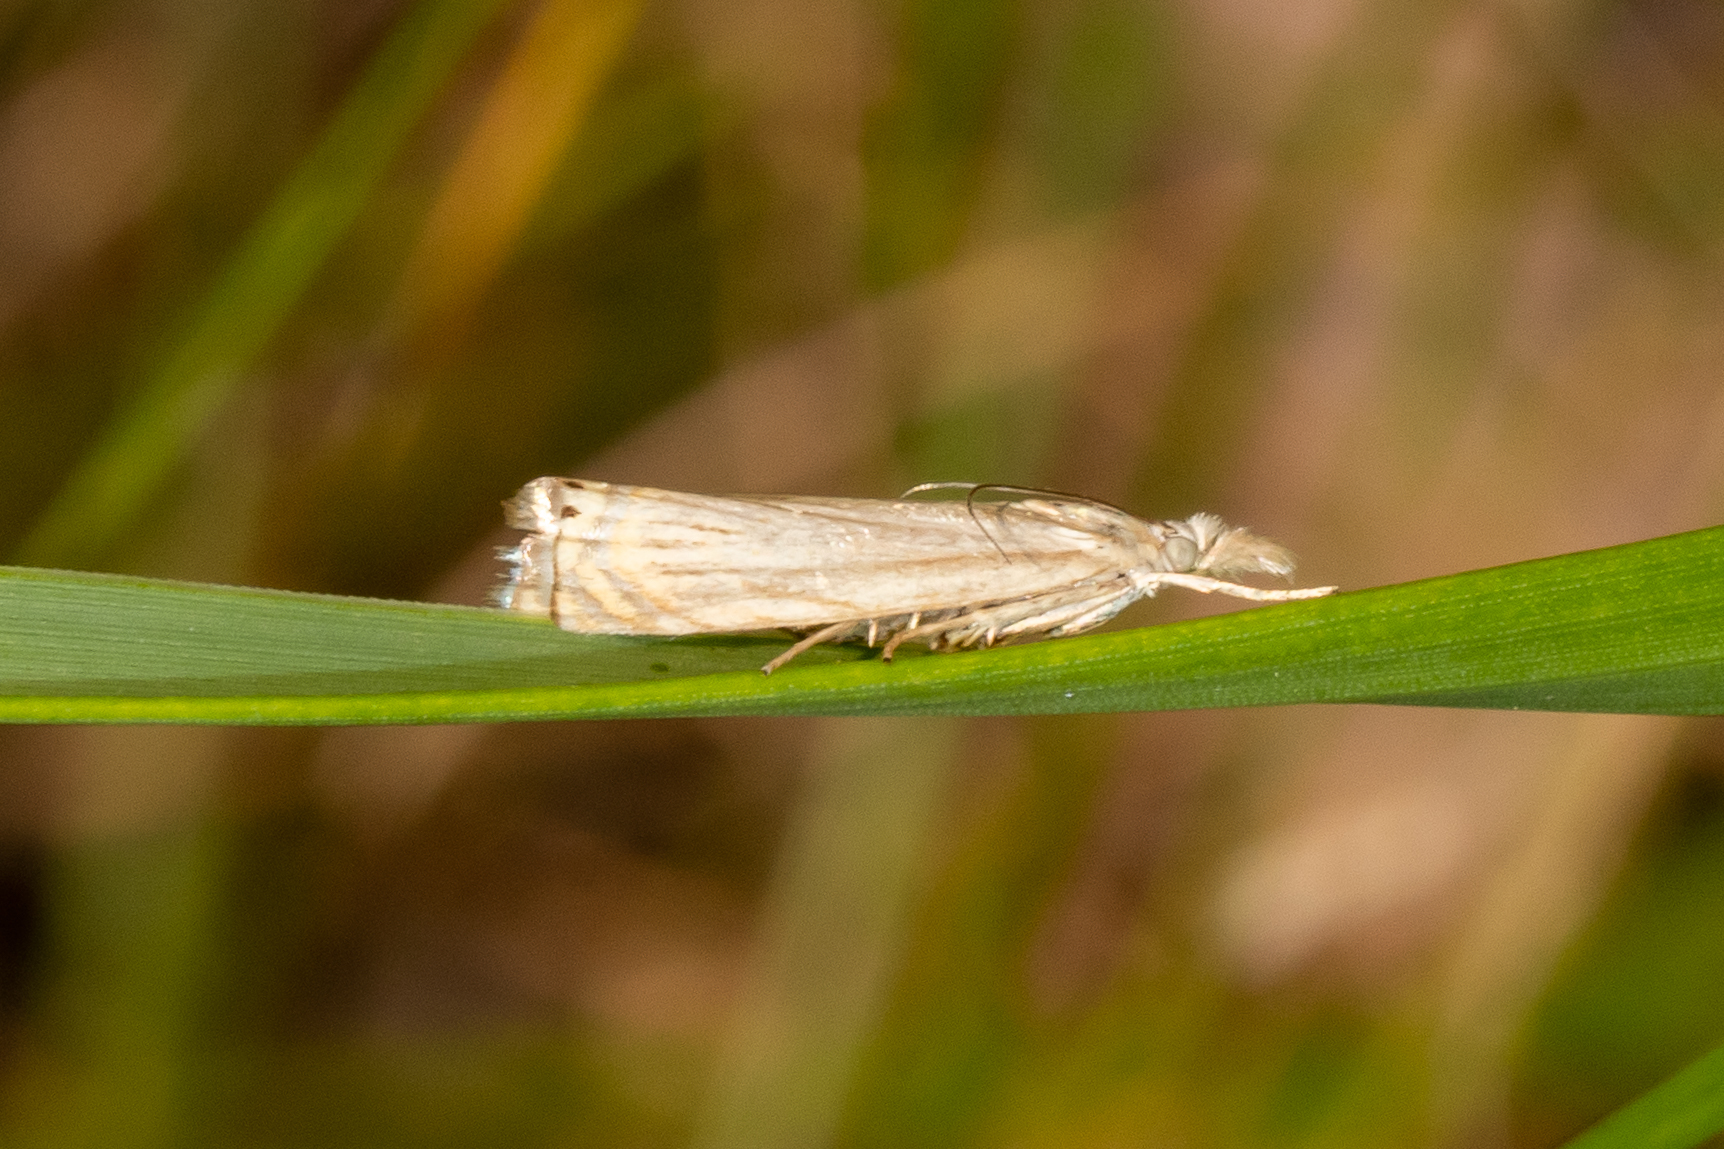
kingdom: Animalia
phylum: Arthropoda
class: Insecta
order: Lepidoptera
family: Crambidae
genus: Chrysoteuchia
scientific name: Chrysoteuchia topiarius
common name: Topiary grass-veneer
